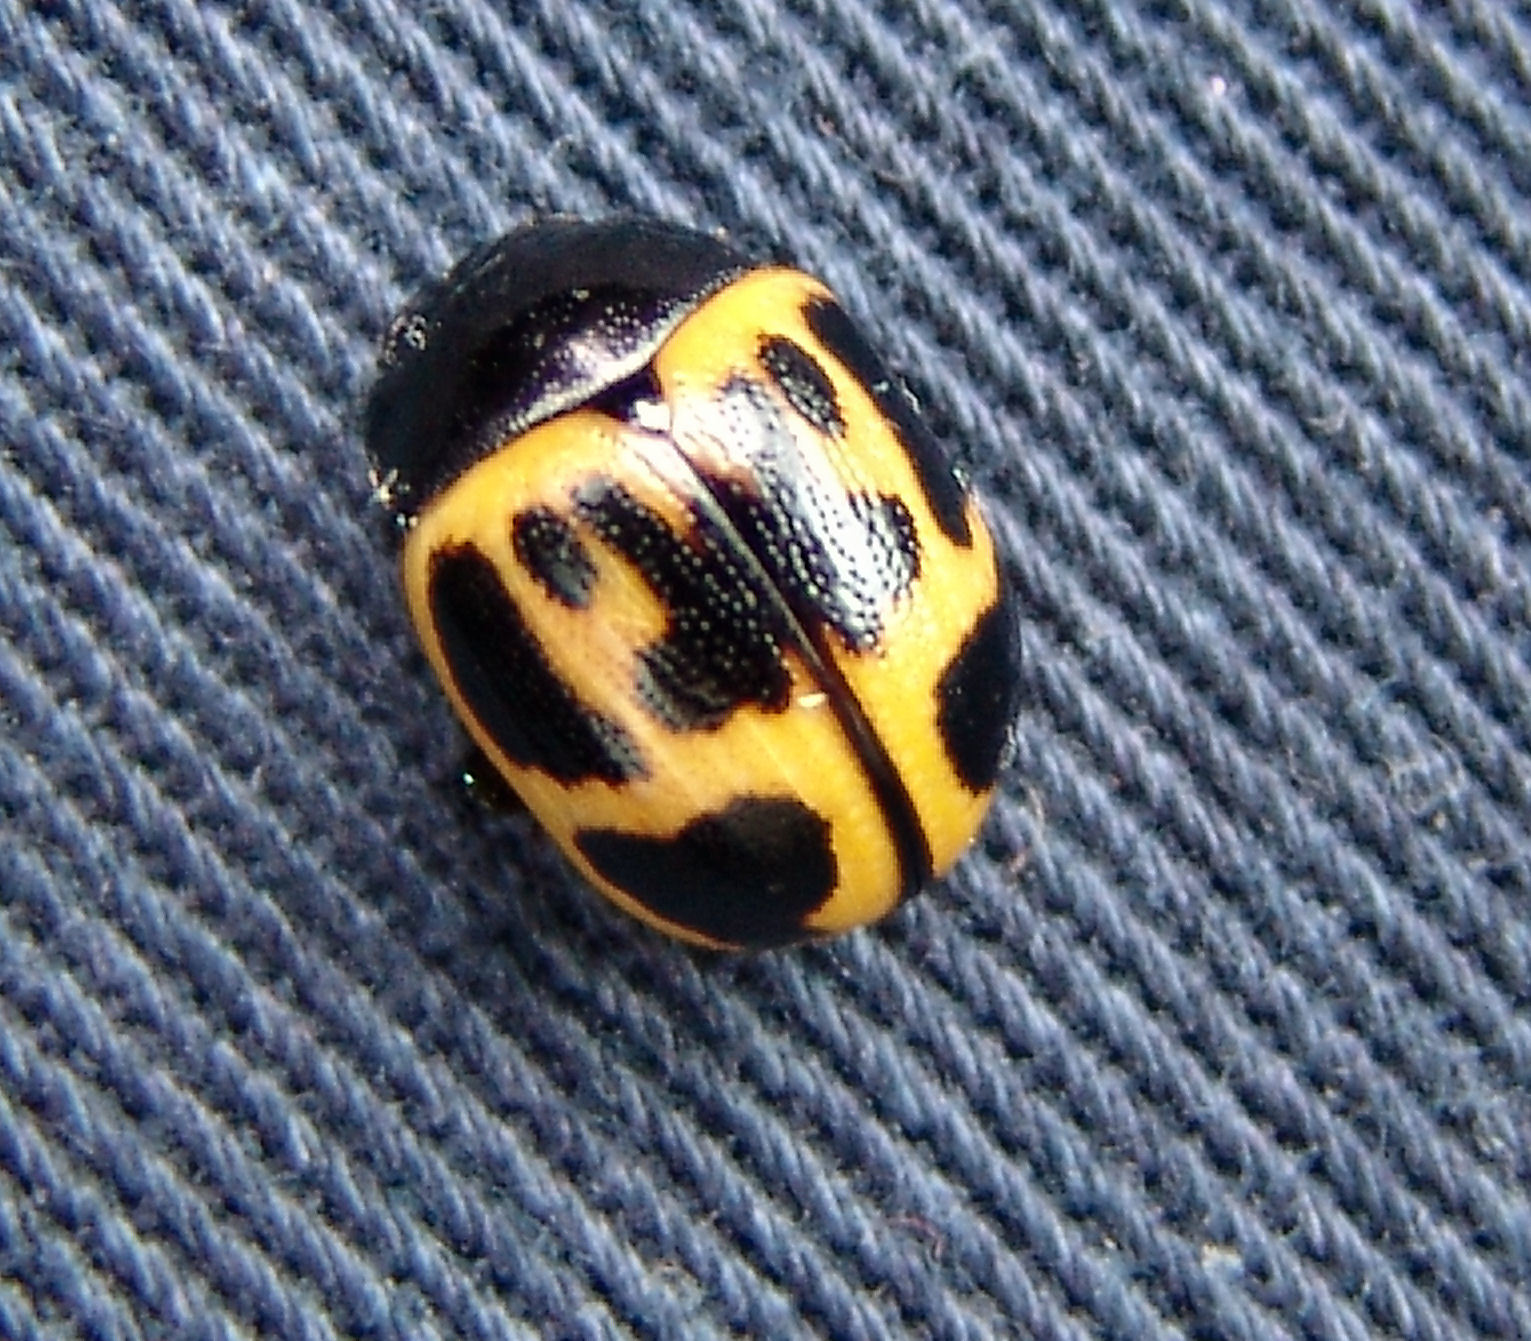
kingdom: Animalia
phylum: Arthropoda
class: Insecta
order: Coleoptera
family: Chrysomelidae
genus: Labidomera
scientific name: Labidomera clivicollis
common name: Swamp milkweed leaf beetle
